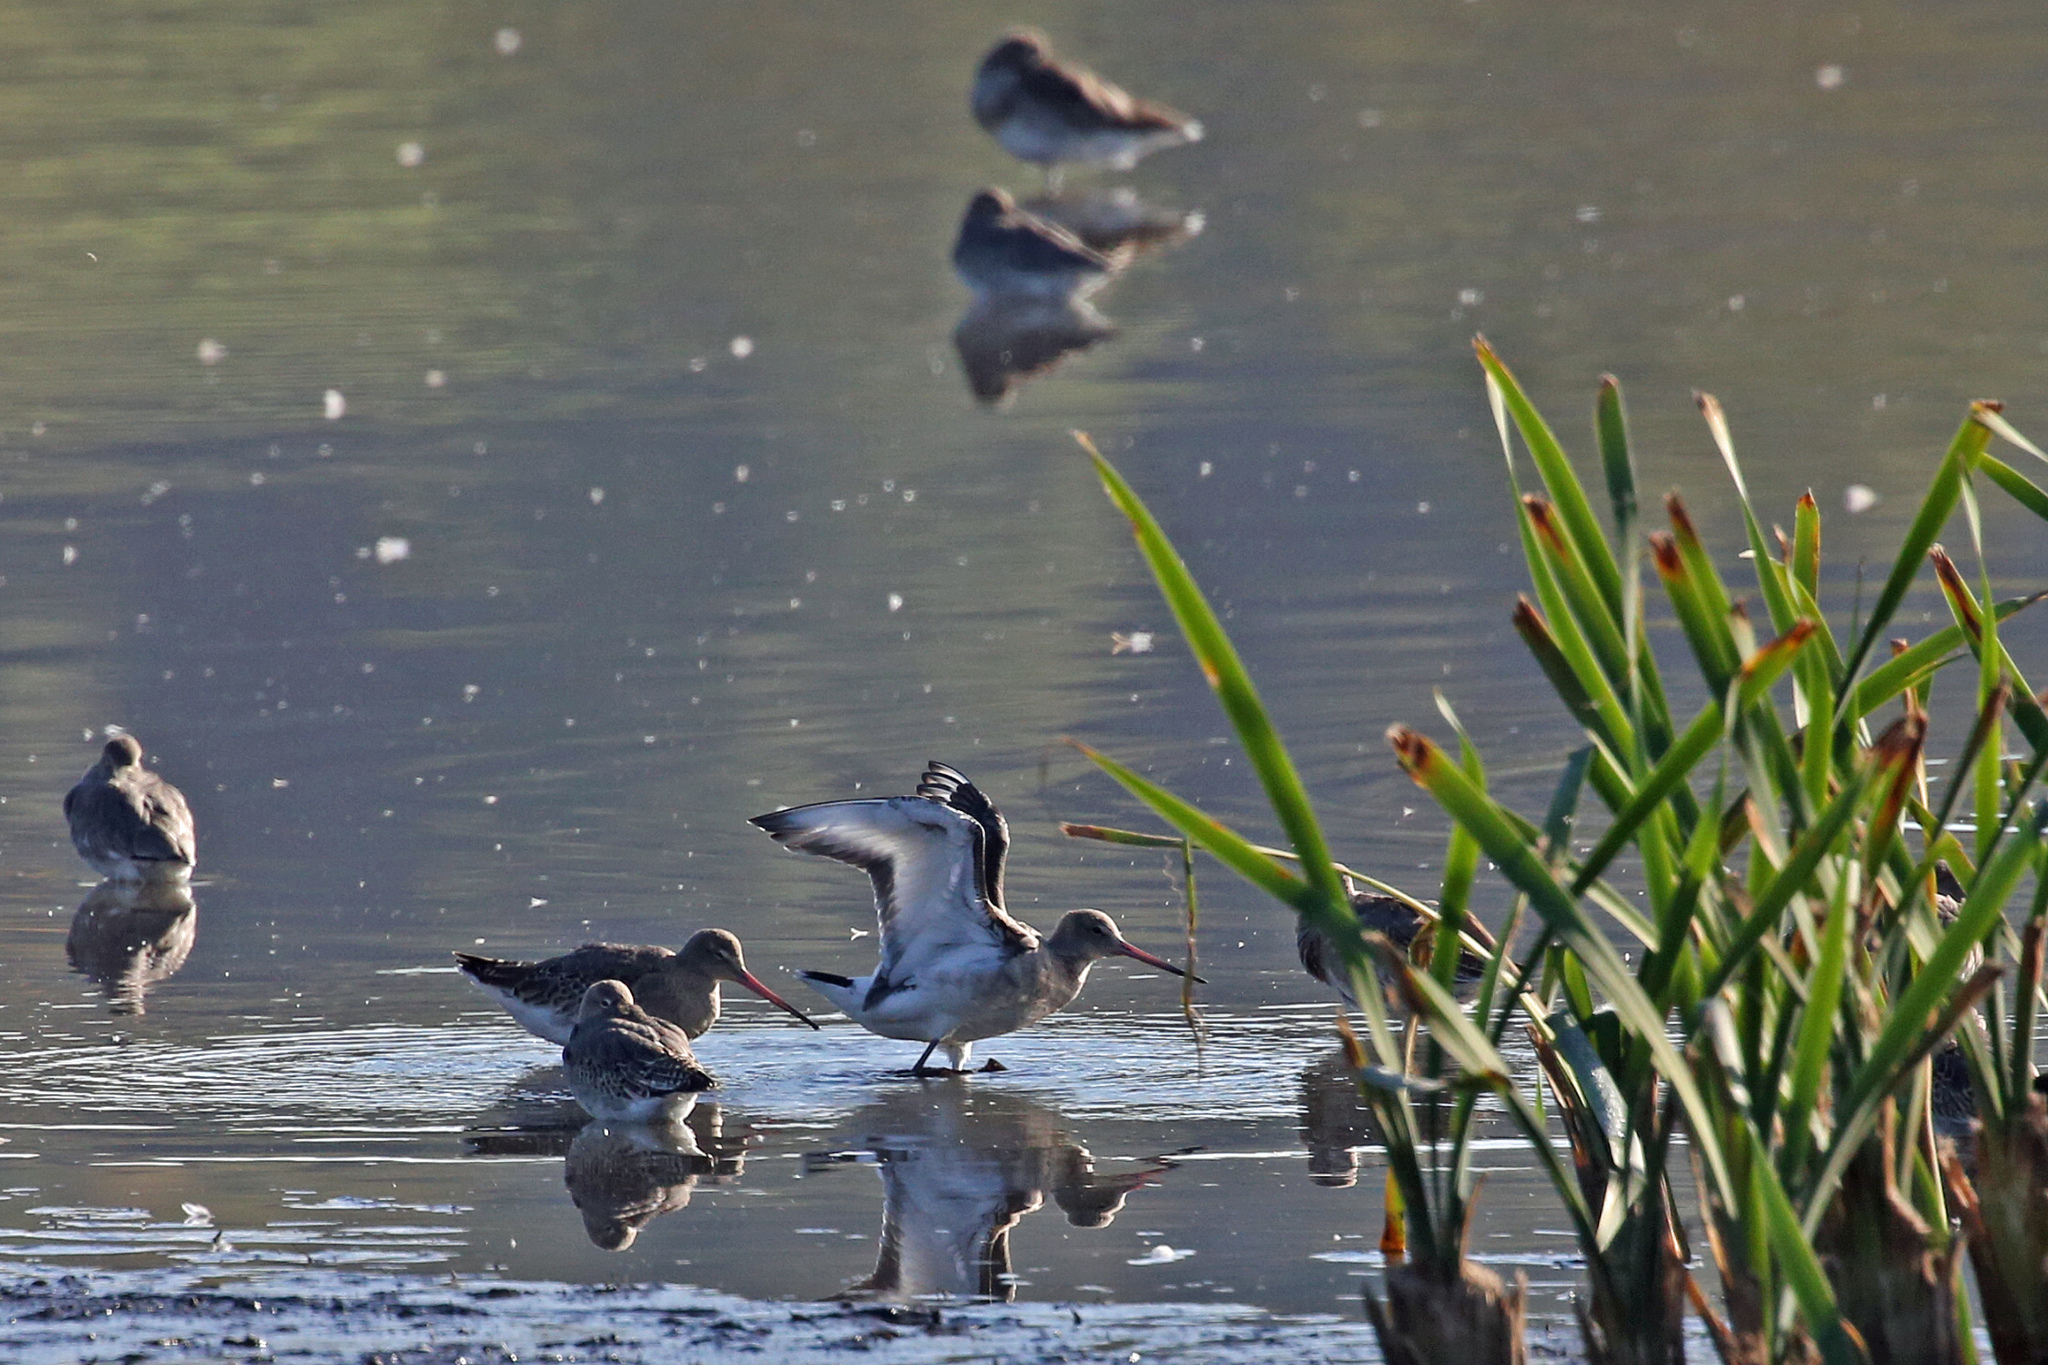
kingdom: Animalia
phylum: Chordata
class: Aves
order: Charadriiformes
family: Scolopacidae
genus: Limosa
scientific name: Limosa limosa
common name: Black-tailed godwit
